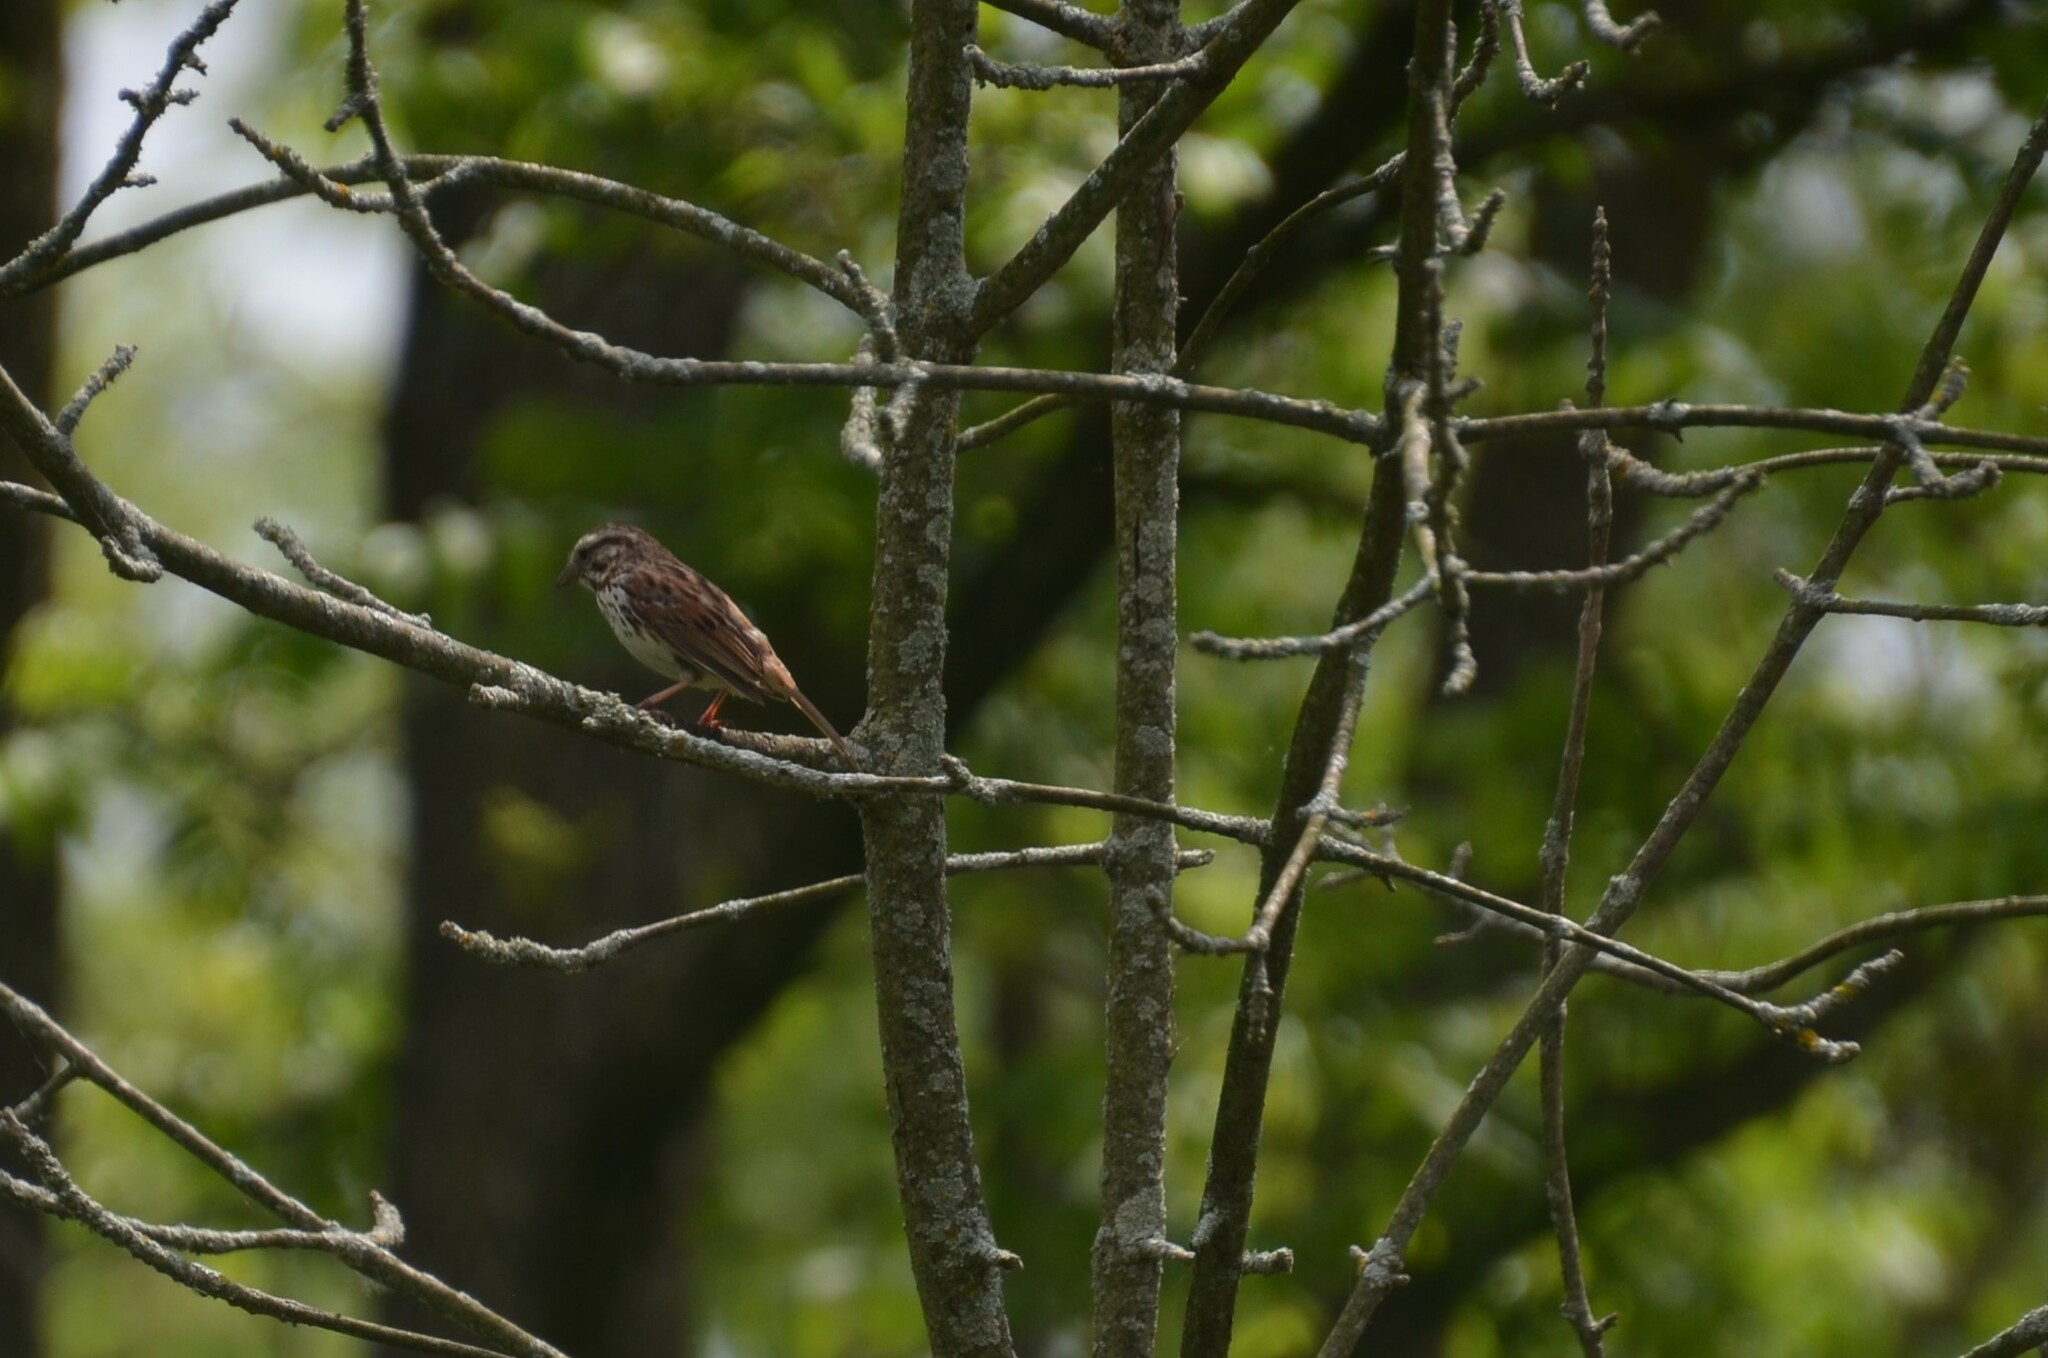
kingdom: Animalia
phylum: Chordata
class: Aves
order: Passeriformes
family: Passerellidae
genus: Melospiza
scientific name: Melospiza melodia
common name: Song sparrow
